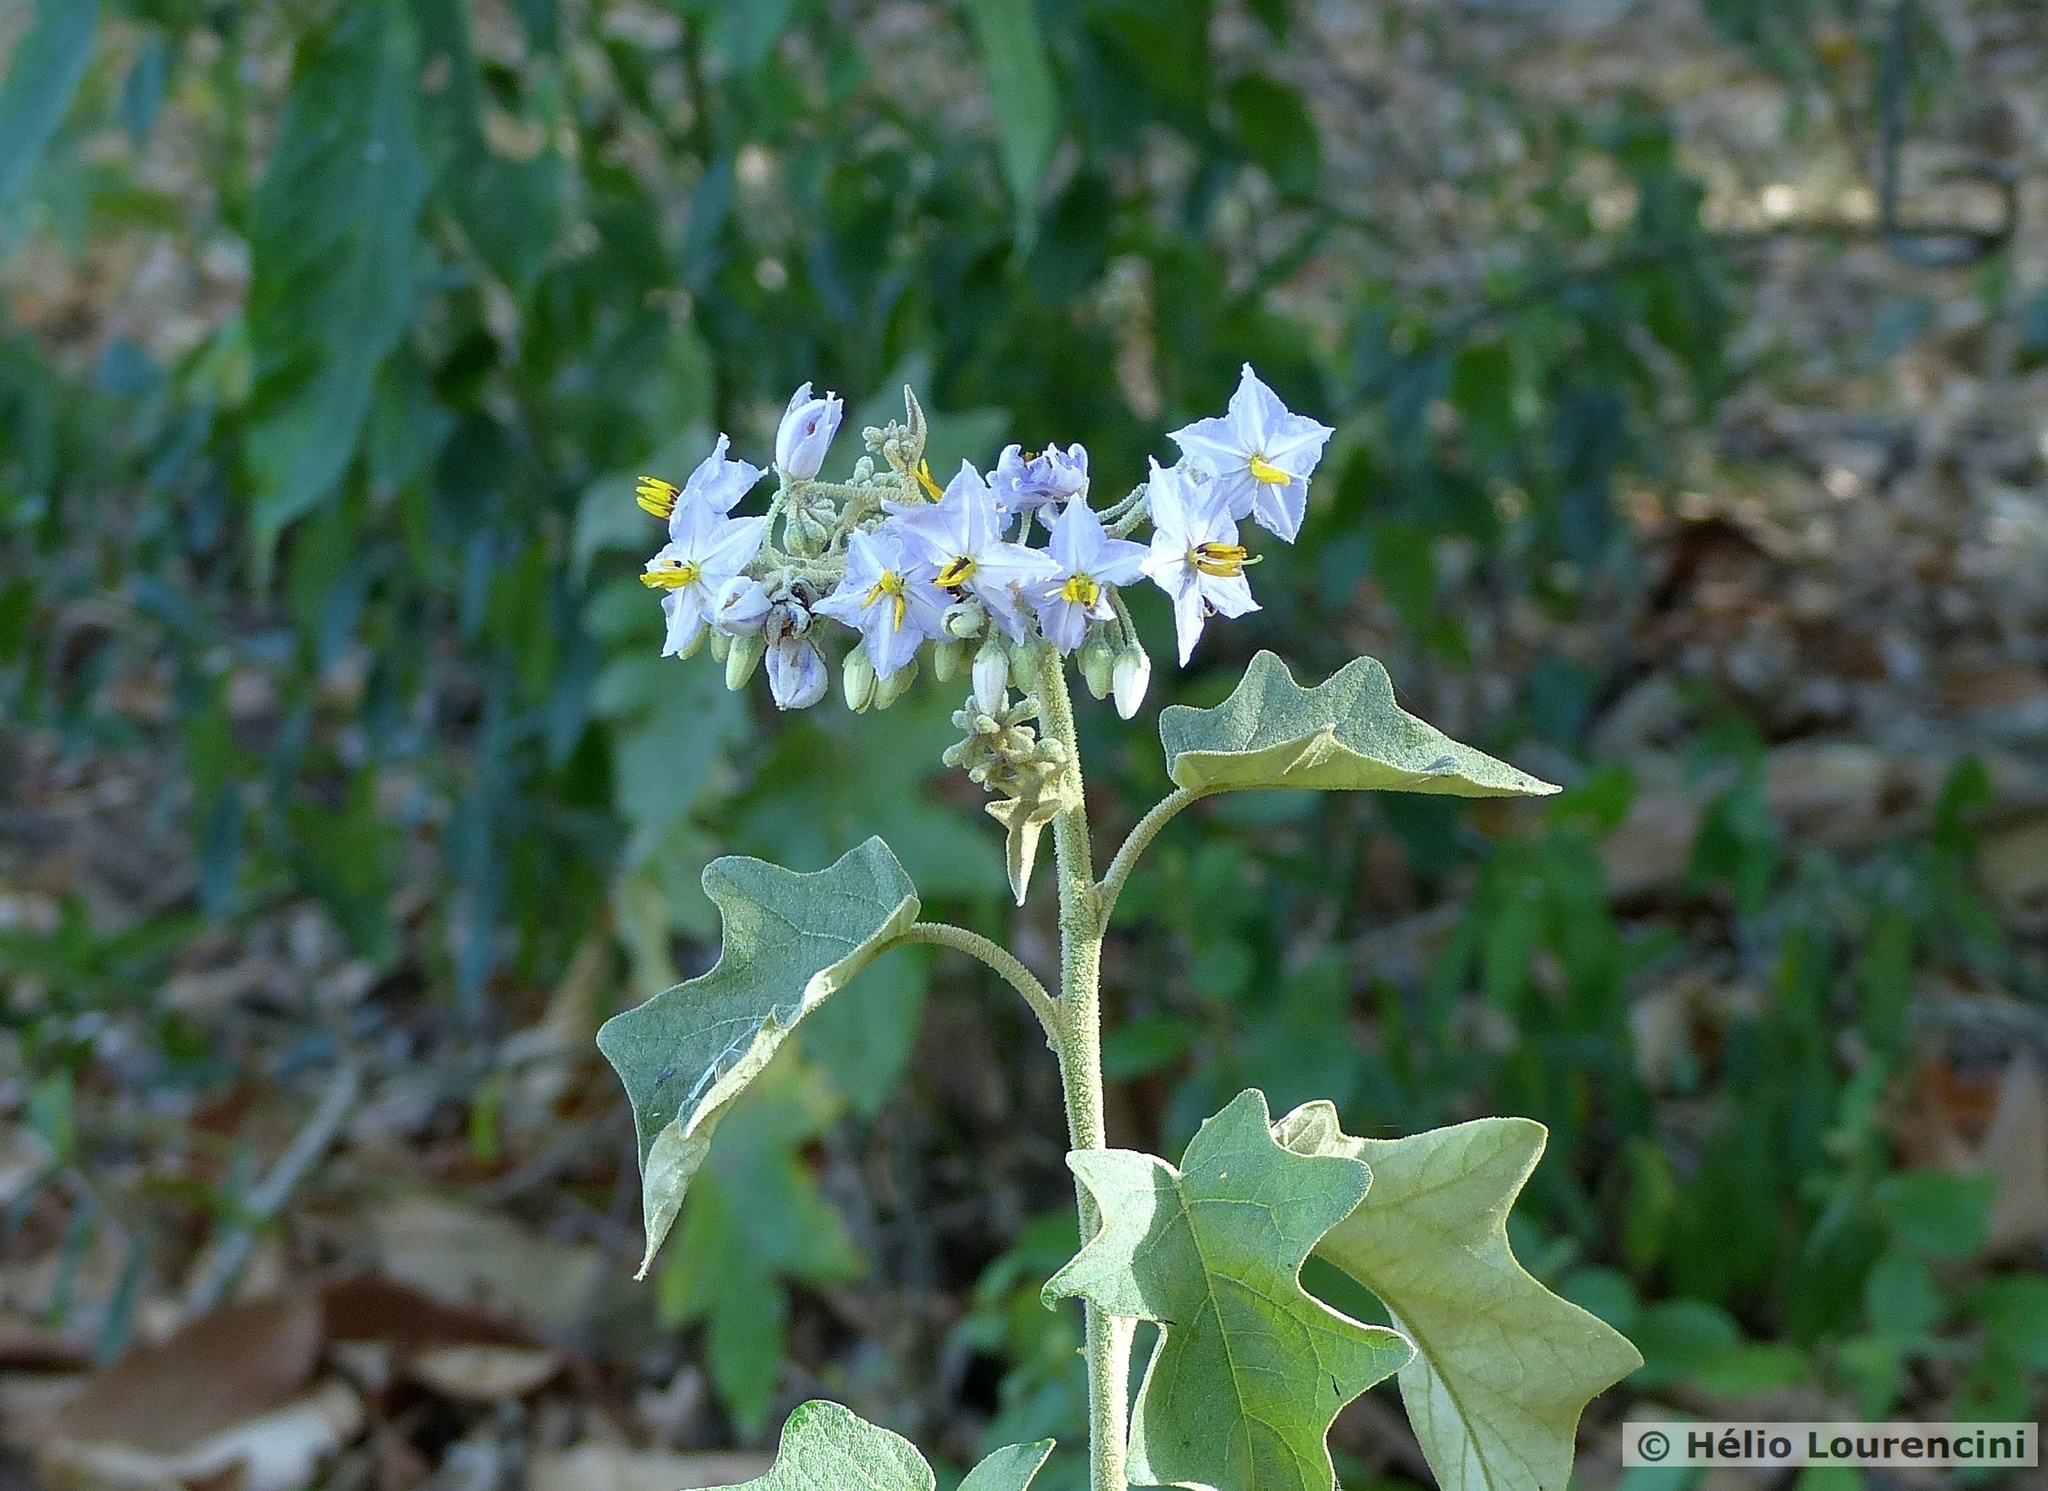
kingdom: Plantae
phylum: Tracheophyta
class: Magnoliopsida
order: Solanales
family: Solanaceae
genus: Solanum
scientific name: Solanum paniculatum
